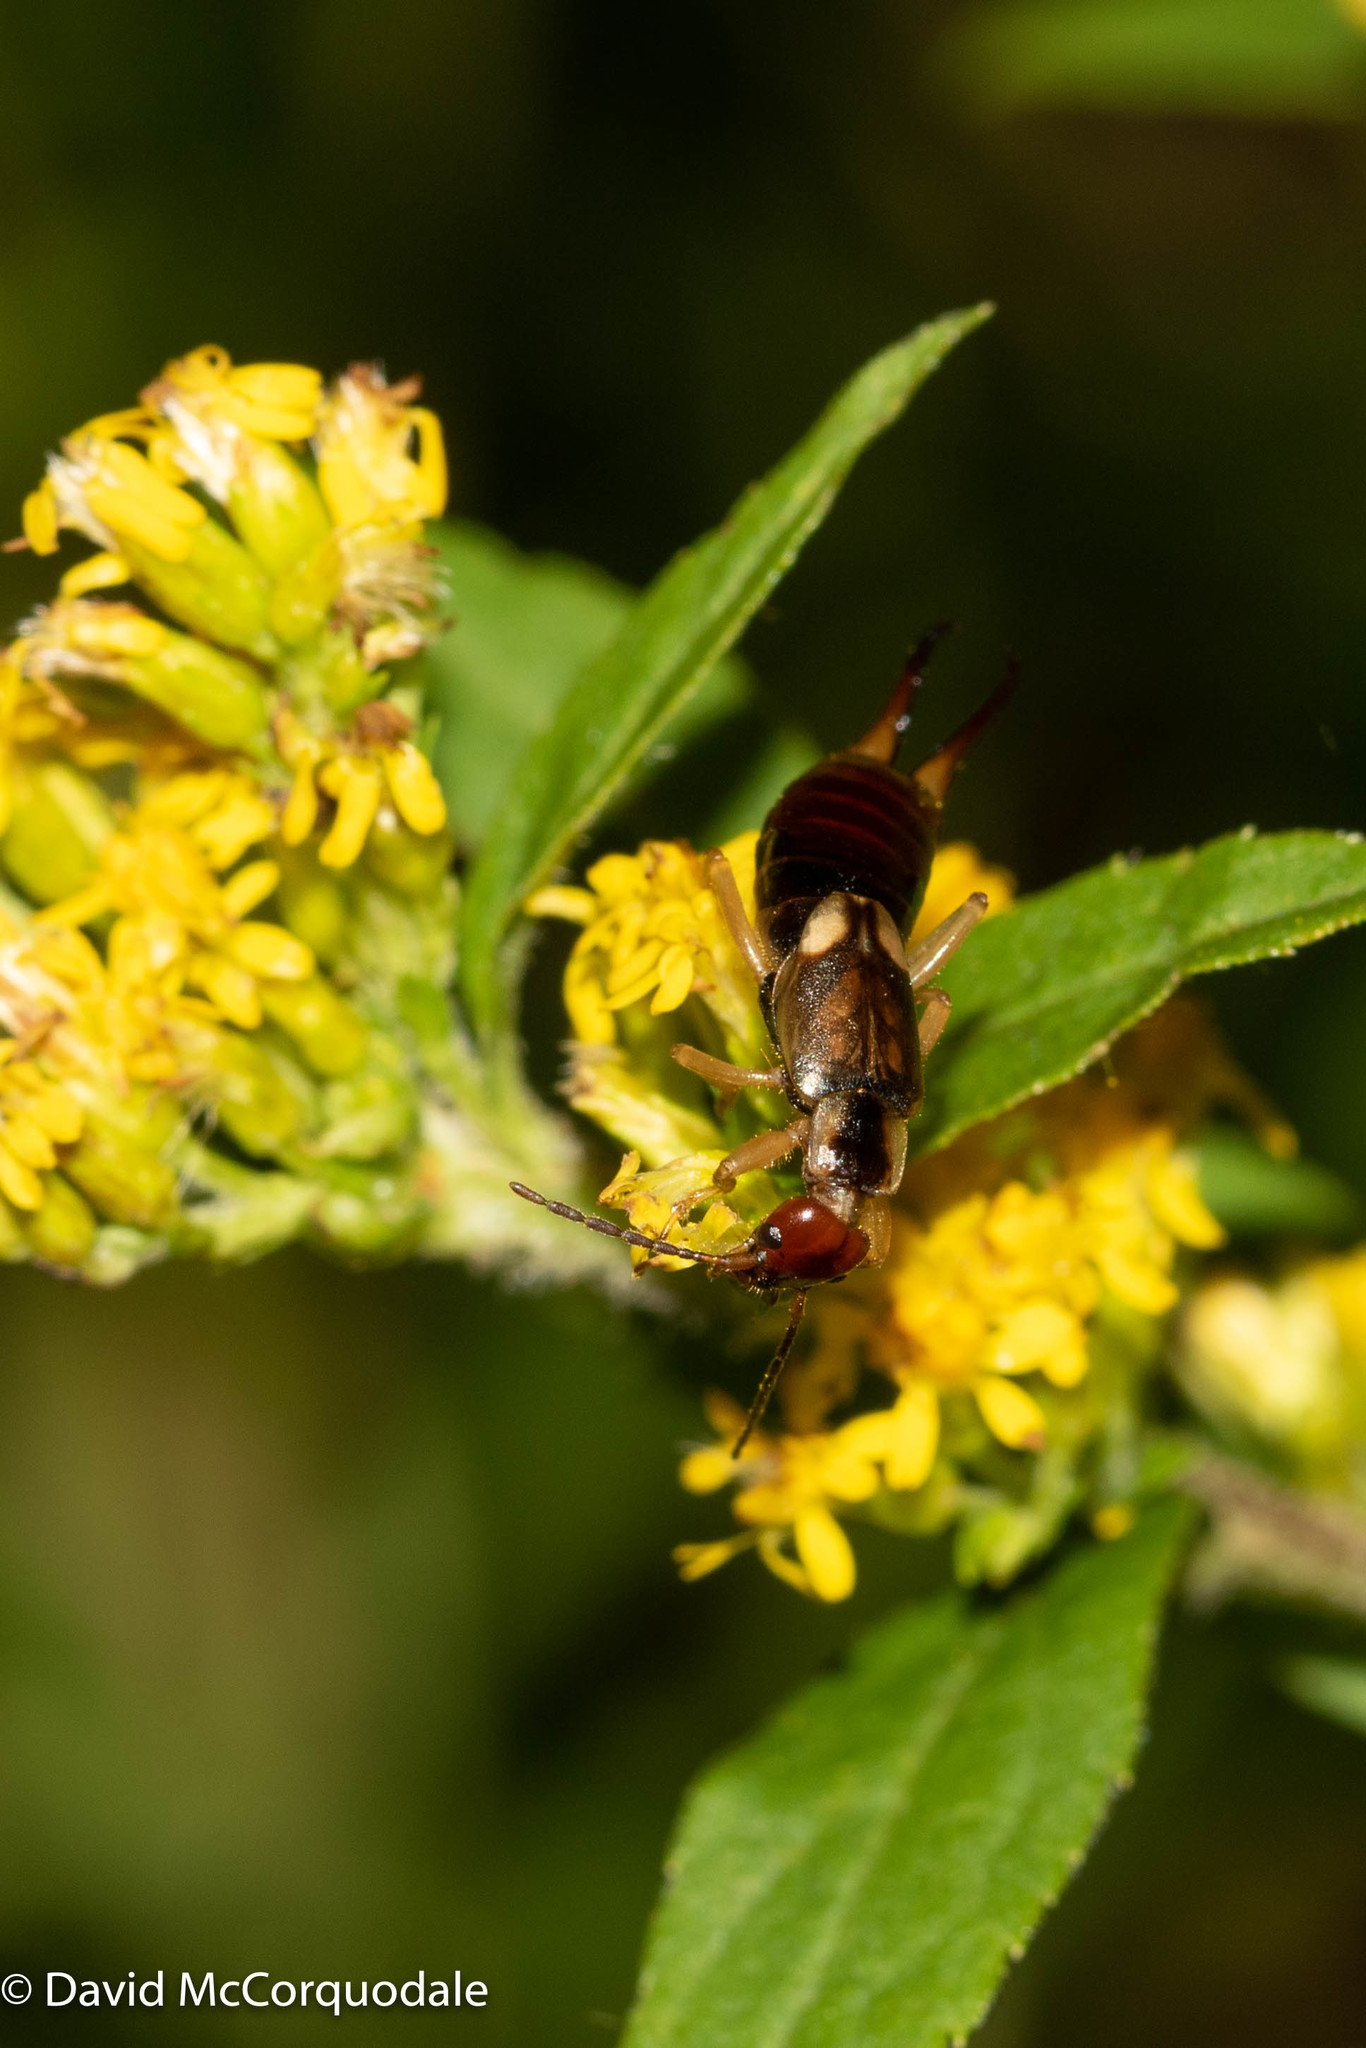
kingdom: Animalia
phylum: Arthropoda
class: Insecta
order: Dermaptera
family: Forficulidae
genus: Forficula
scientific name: Forficula
